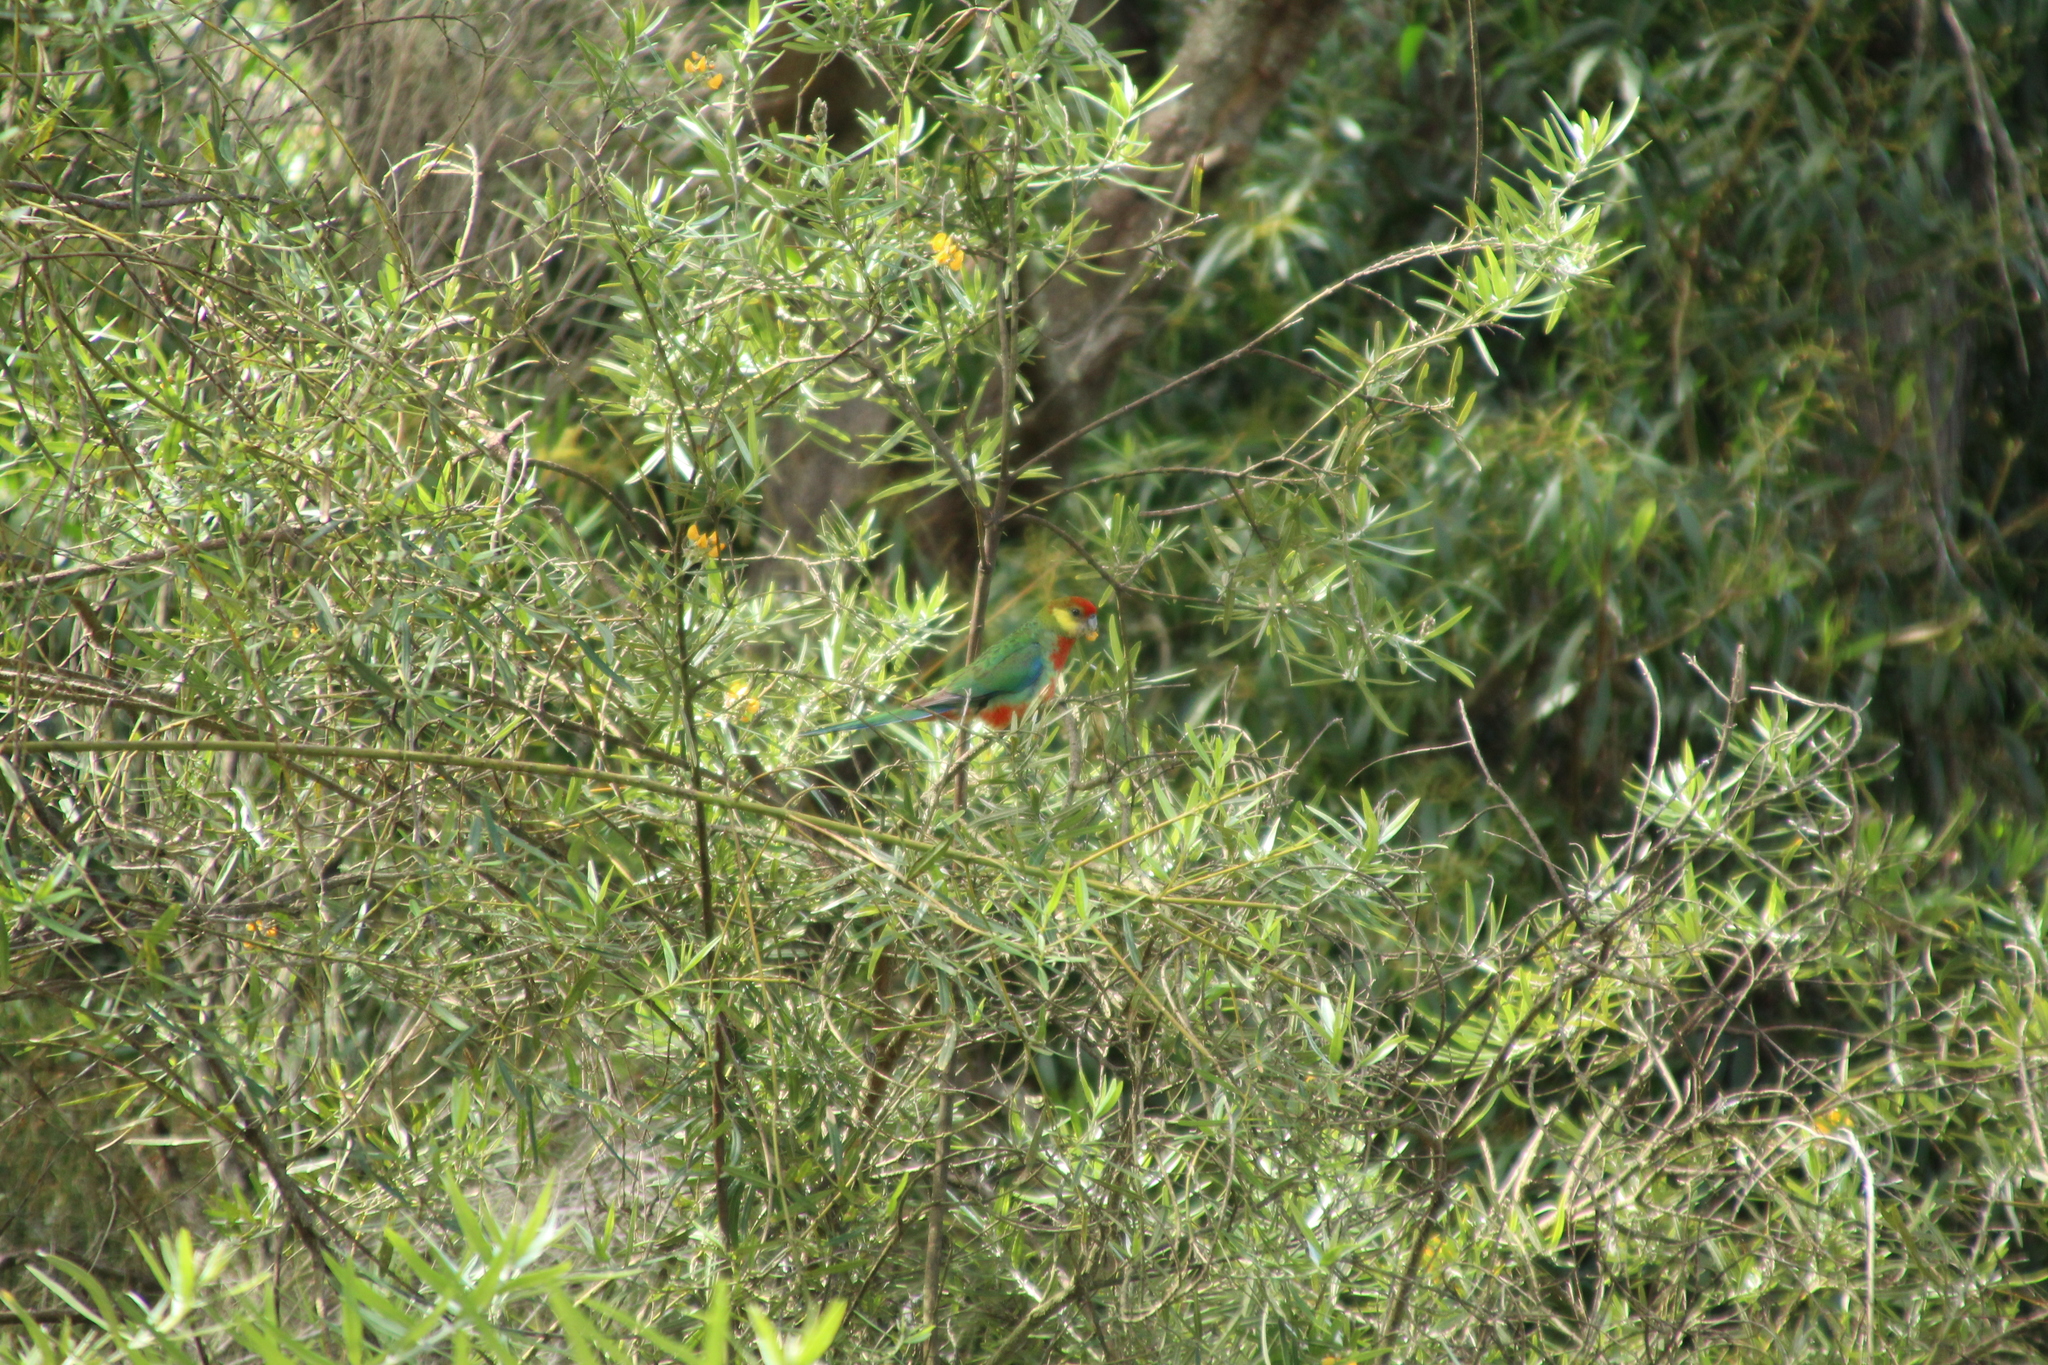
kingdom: Animalia
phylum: Chordata
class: Aves
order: Psittaciformes
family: Psittacidae
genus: Platycercus
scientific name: Platycercus icterotis
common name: Western rosella
